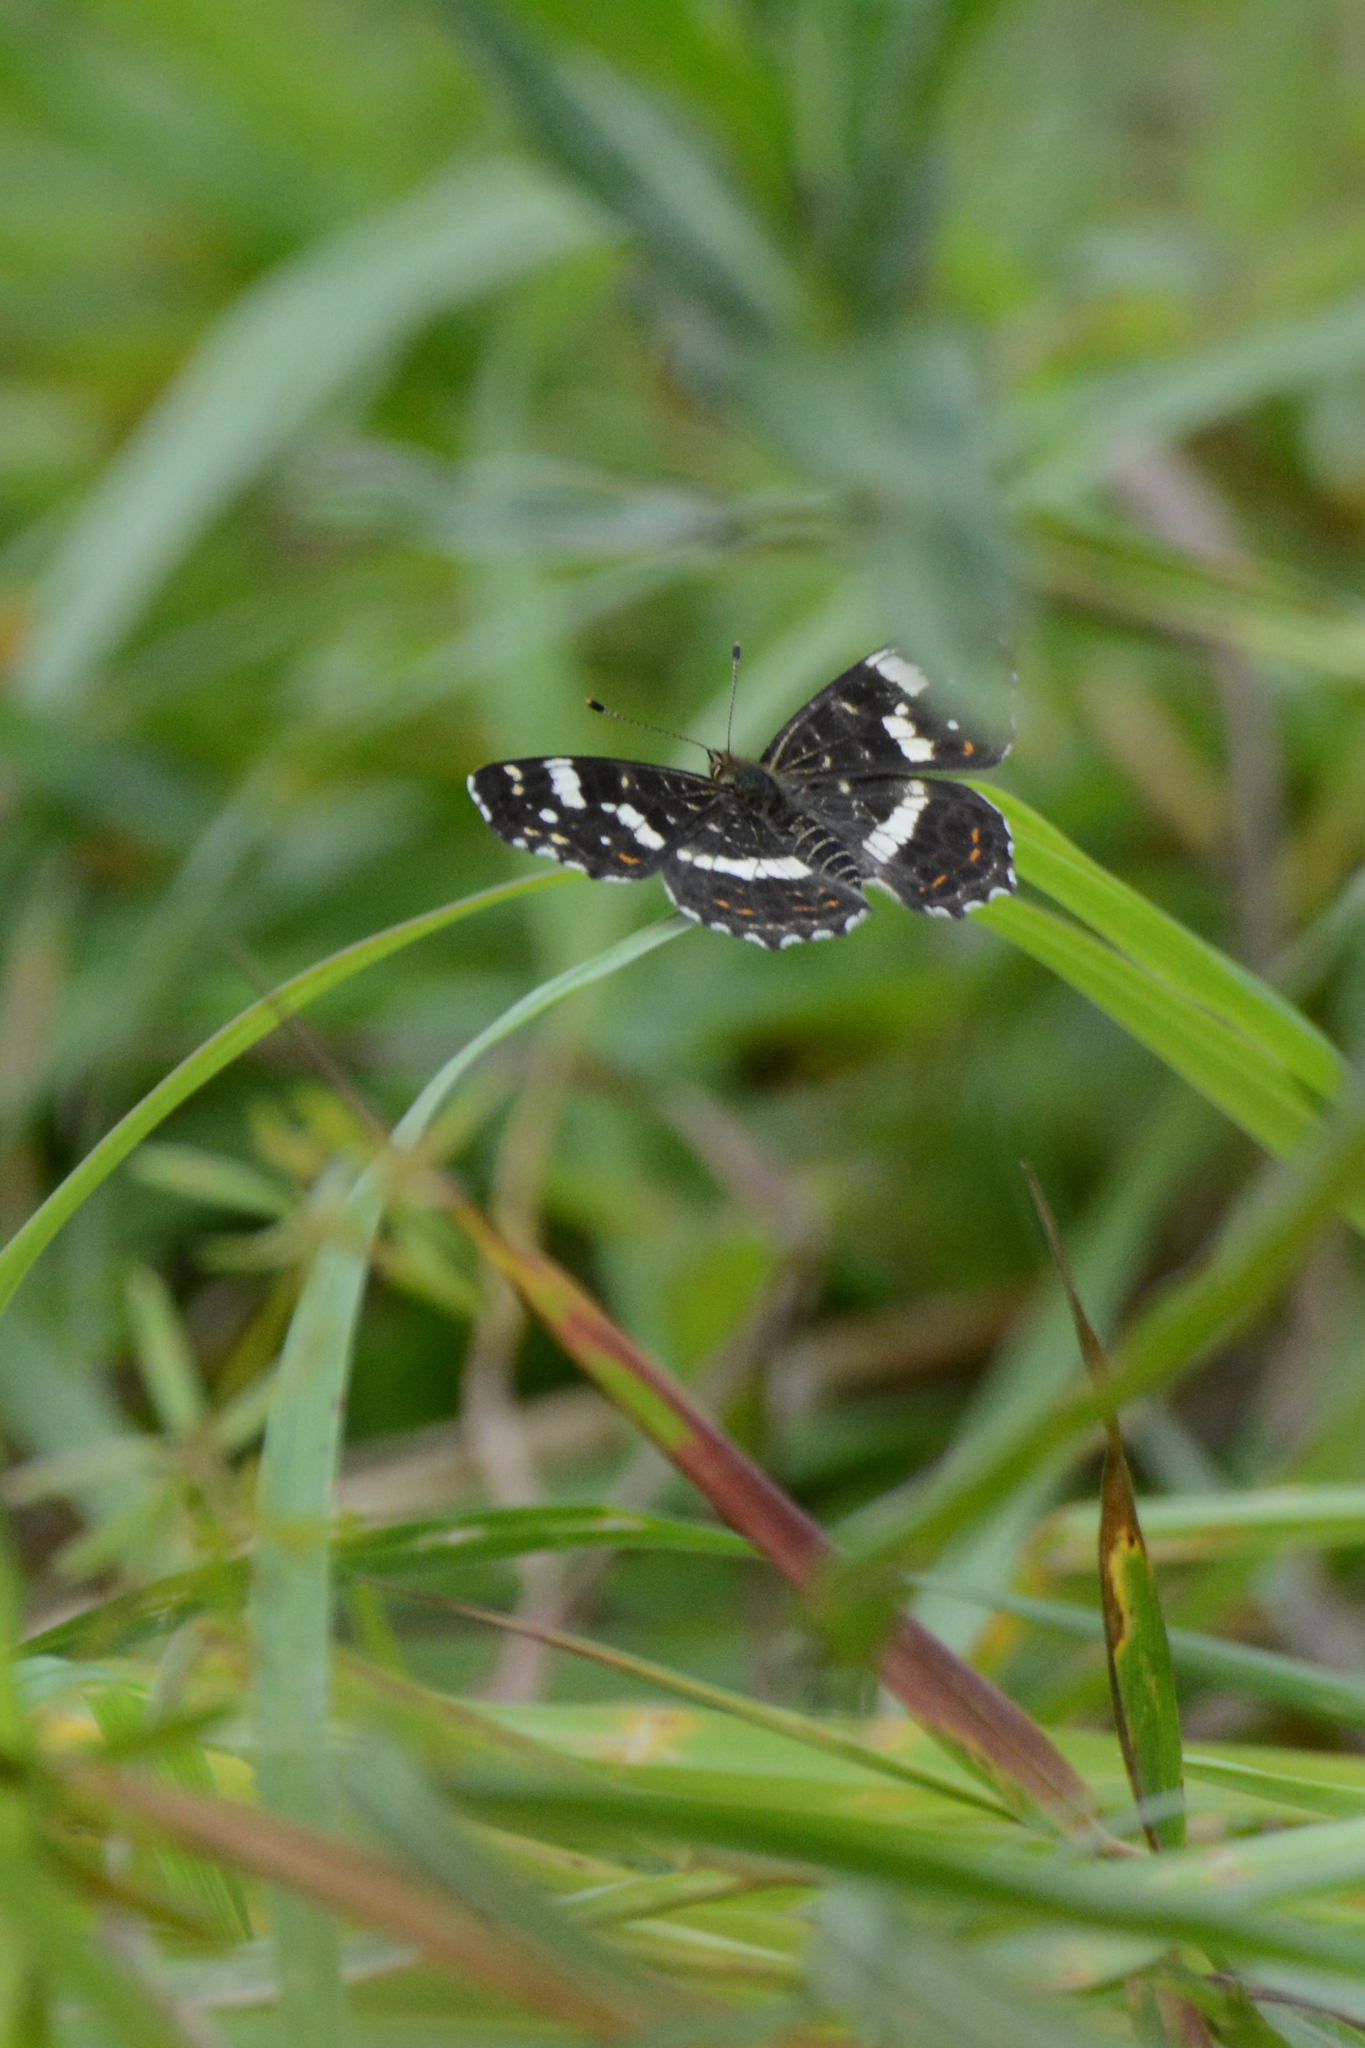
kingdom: Animalia
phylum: Arthropoda
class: Insecta
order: Lepidoptera
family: Nymphalidae
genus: Araschnia
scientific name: Araschnia levana
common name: Map butterfly
